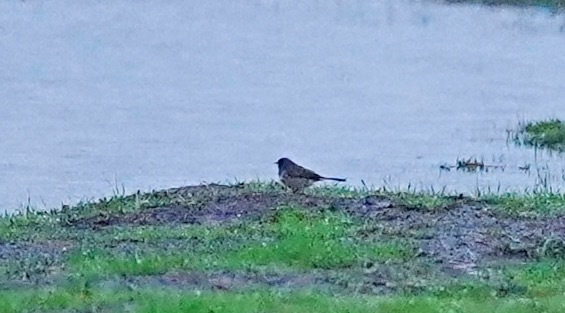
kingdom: Animalia
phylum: Chordata
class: Aves
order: Passeriformes
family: Passerellidae
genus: Junco
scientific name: Junco hyemalis
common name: Dark-eyed junco
